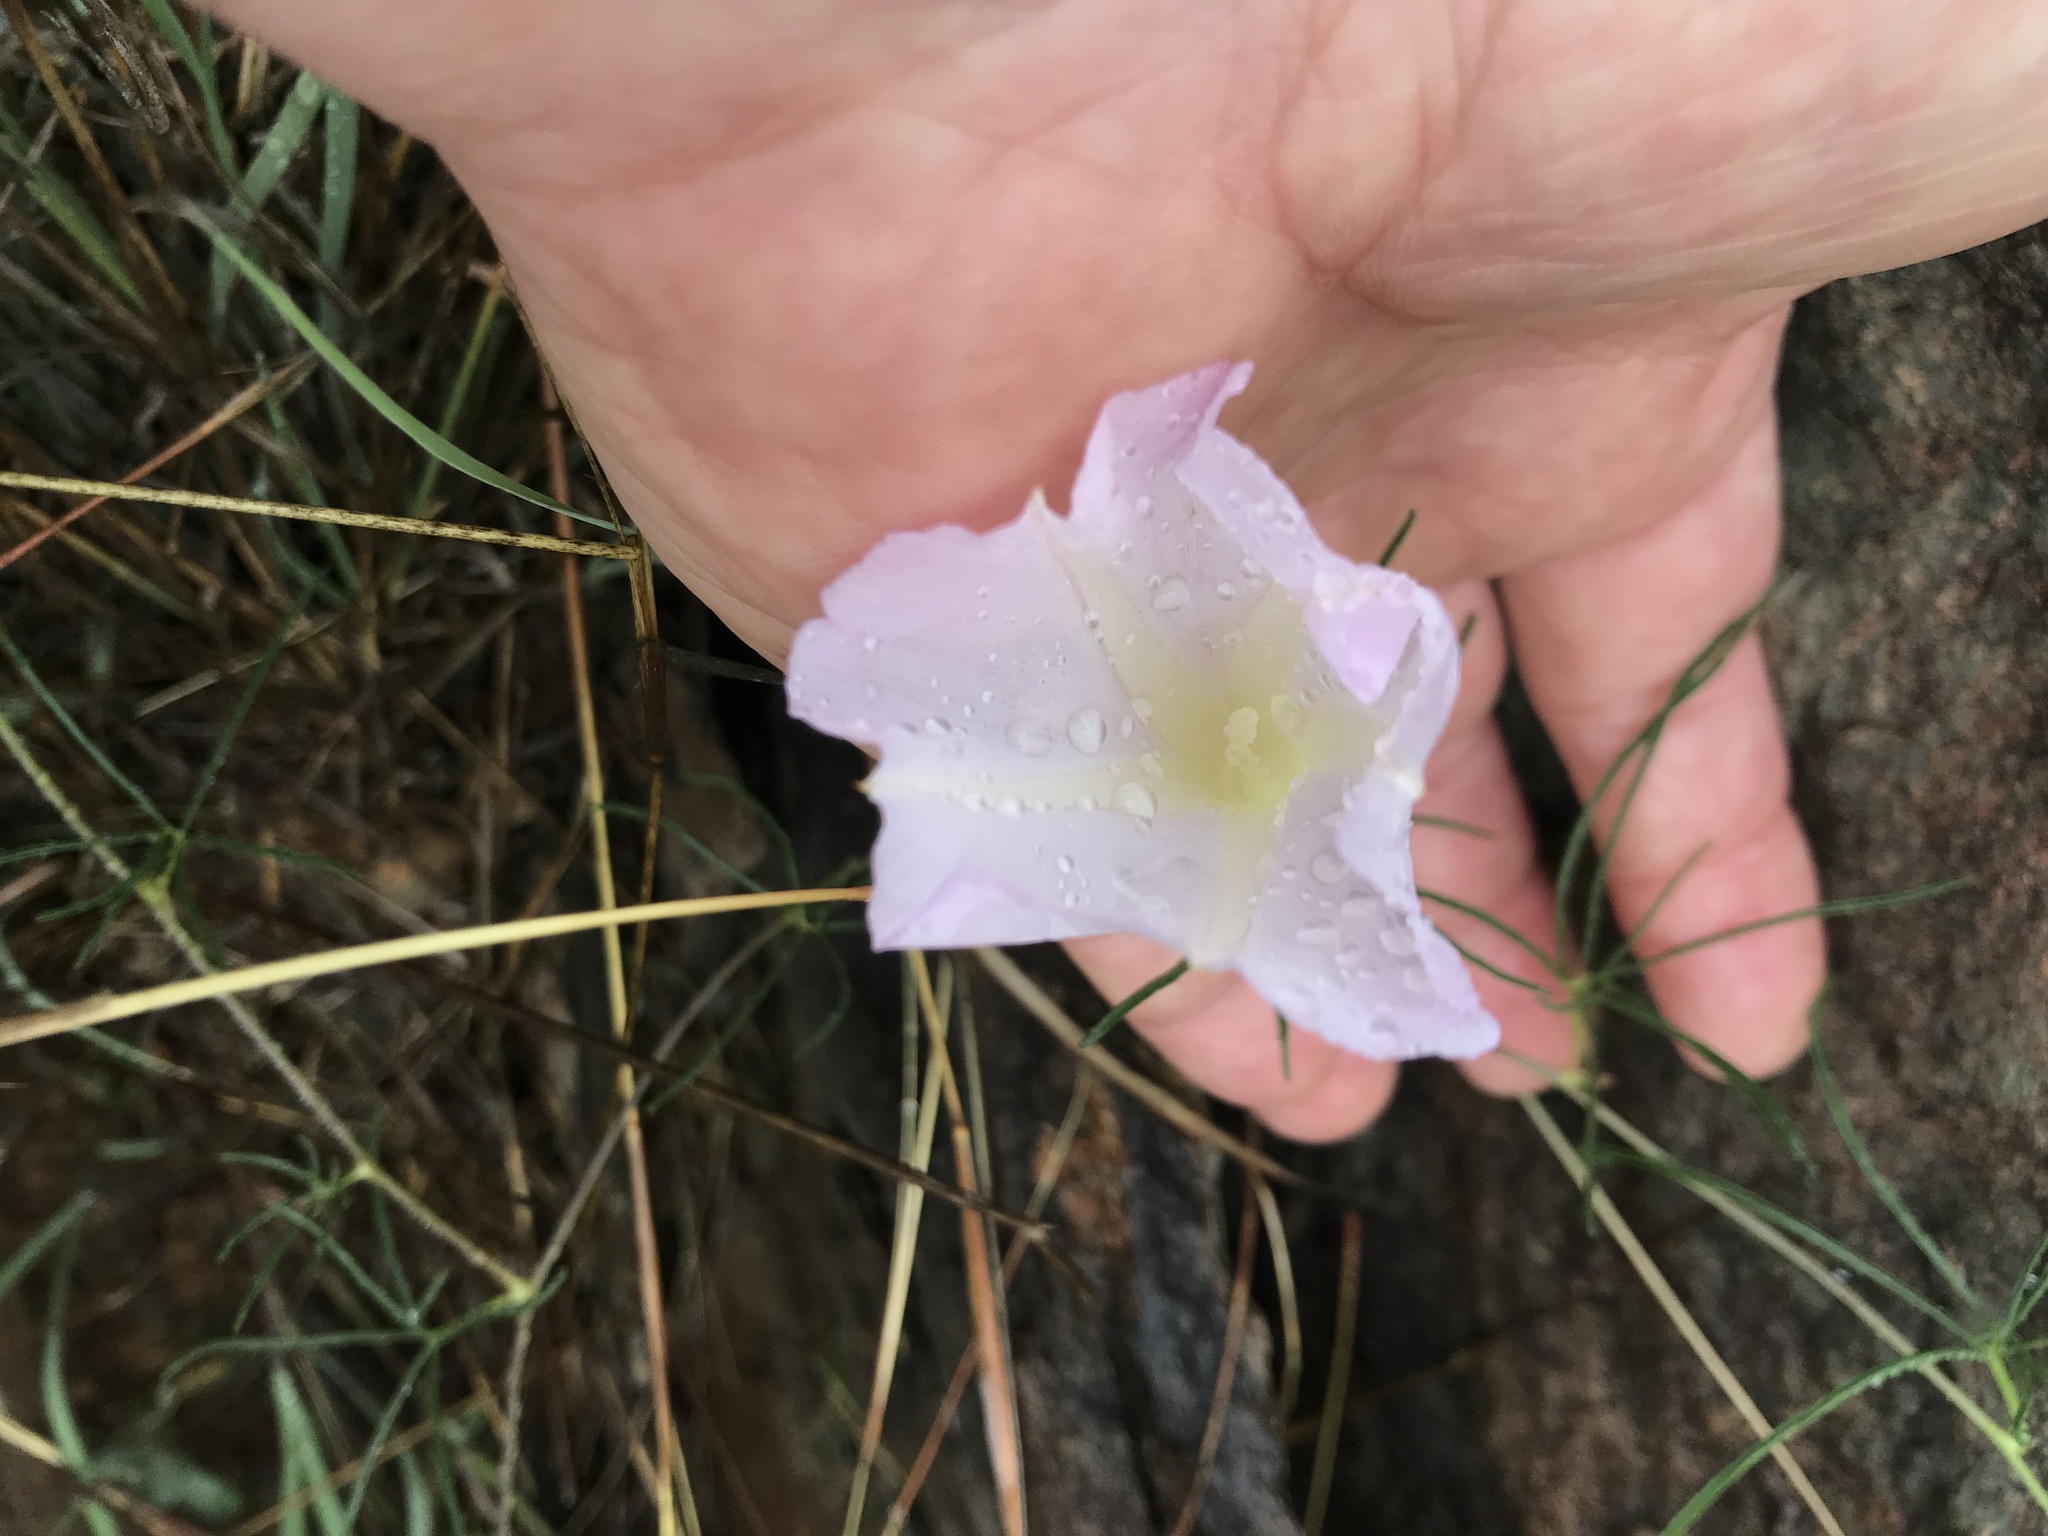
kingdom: Plantae
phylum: Tracheophyta
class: Magnoliopsida
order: Solanales
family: Convolvulaceae
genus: Ipomoea
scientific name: Ipomoea tenuiloba
